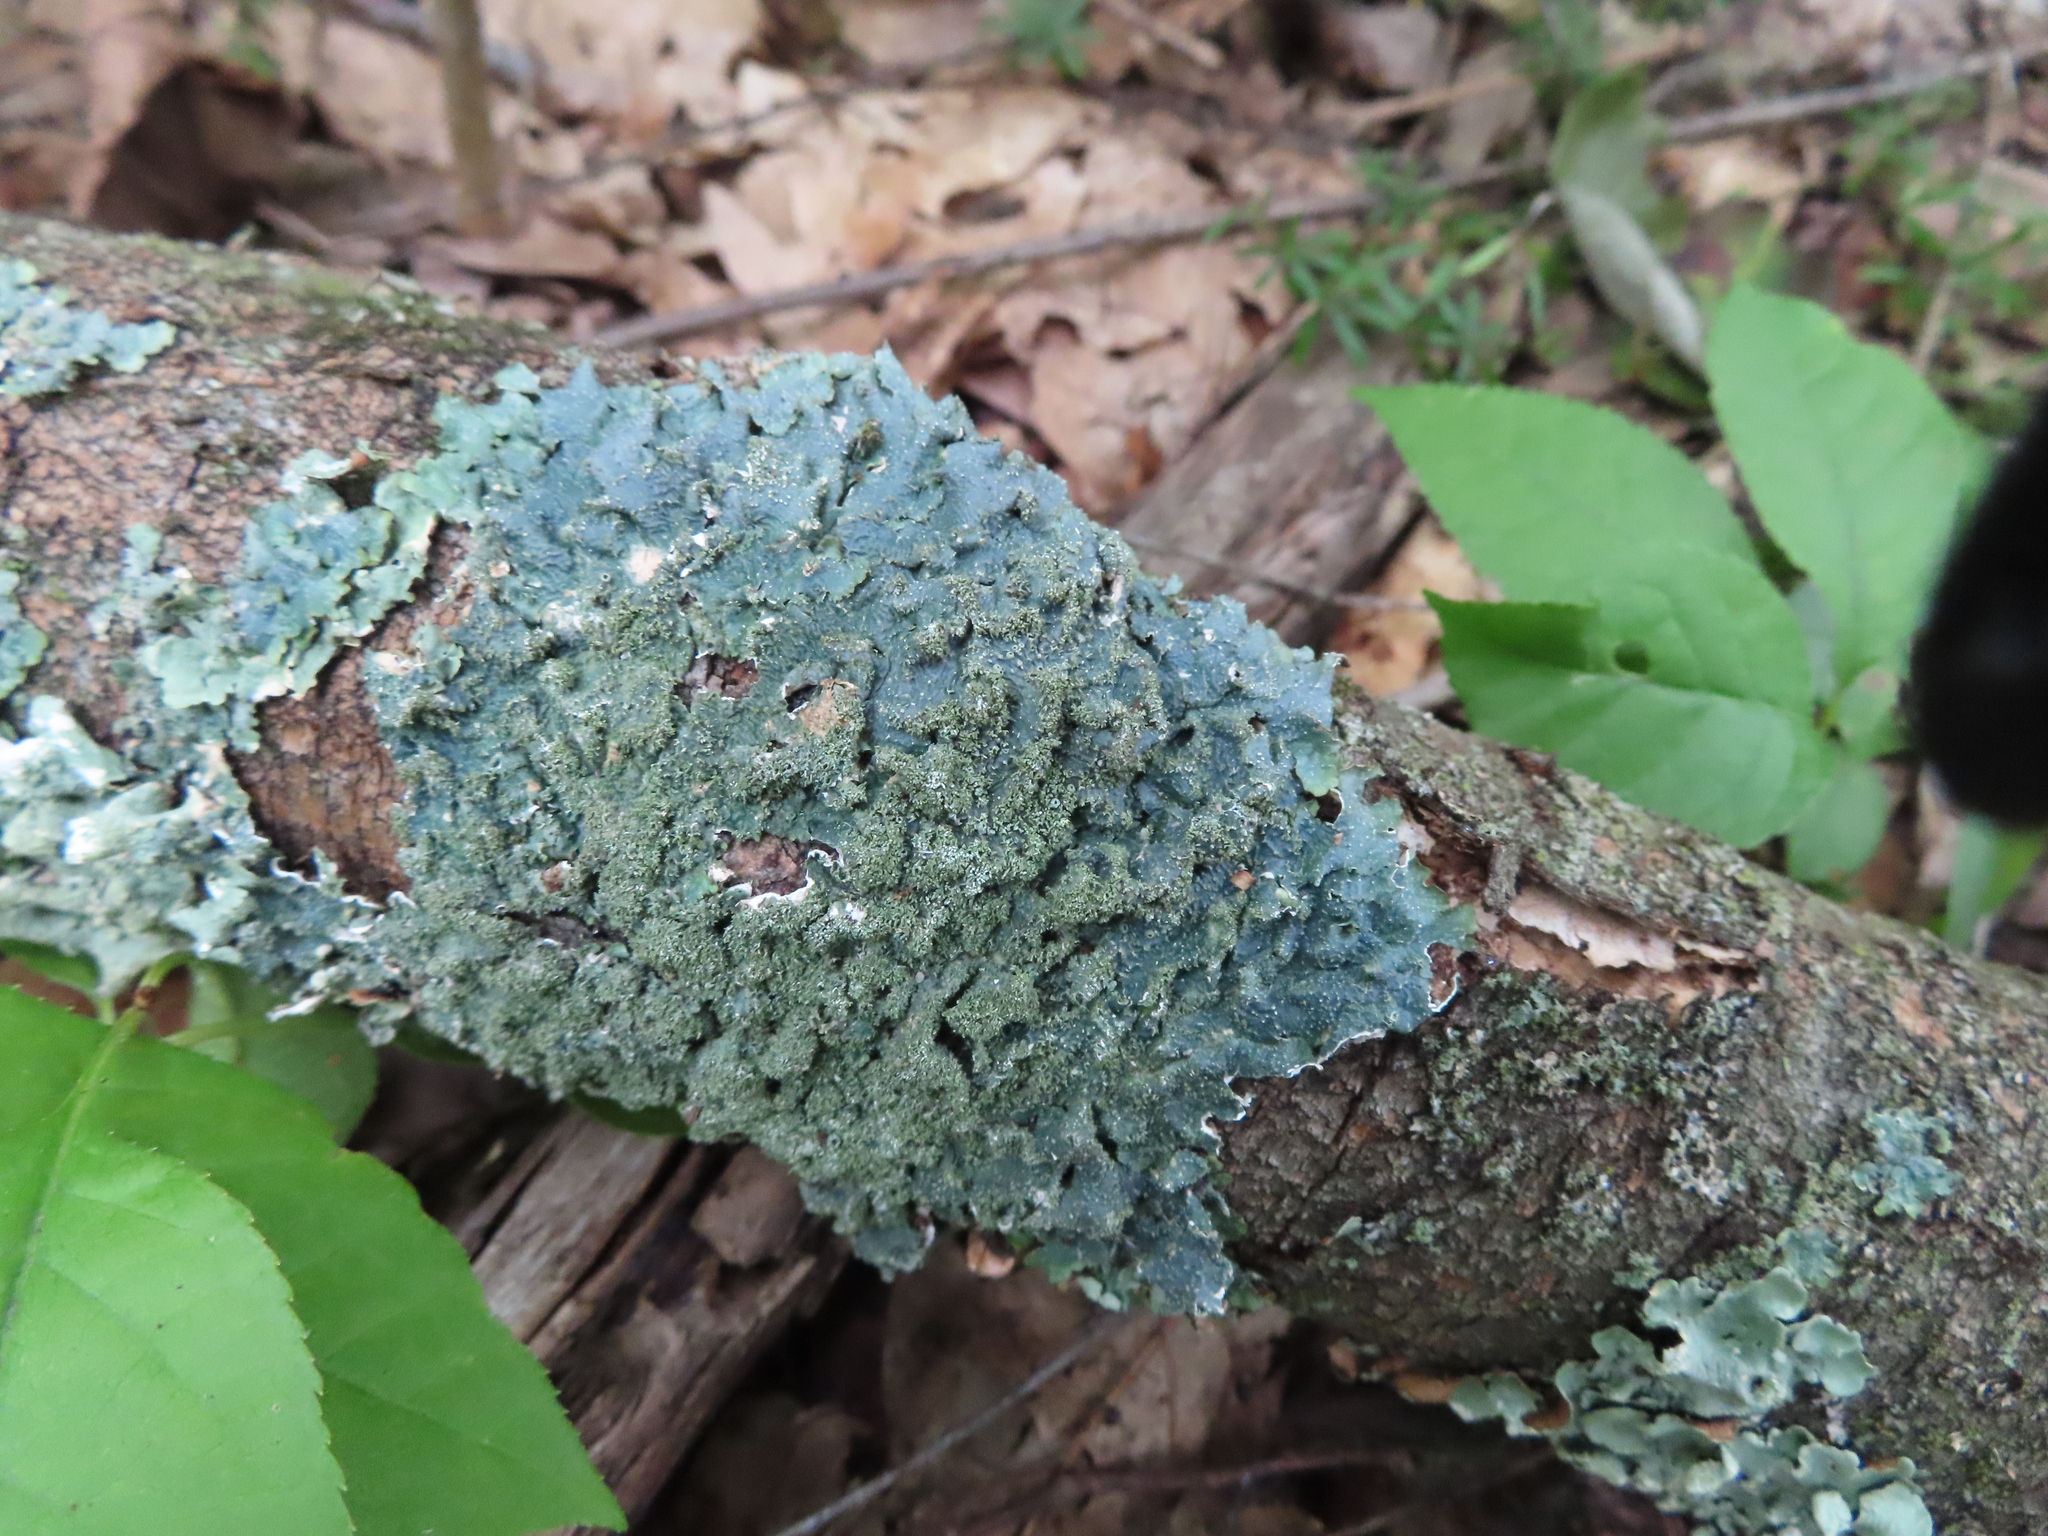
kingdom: Fungi
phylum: Ascomycota
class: Lecanoromycetes
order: Lecanorales
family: Parmeliaceae
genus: Punctelia
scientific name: Punctelia rudecta
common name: Rough speckled shield lichen
